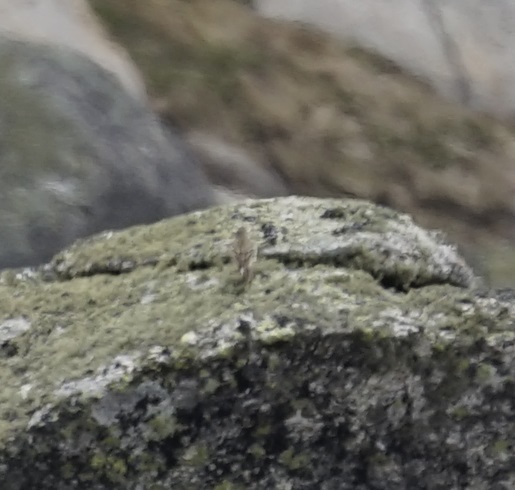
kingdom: Animalia
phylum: Chordata
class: Aves
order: Passeriformes
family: Motacillidae
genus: Anthus
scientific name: Anthus australis
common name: Australian pipit
